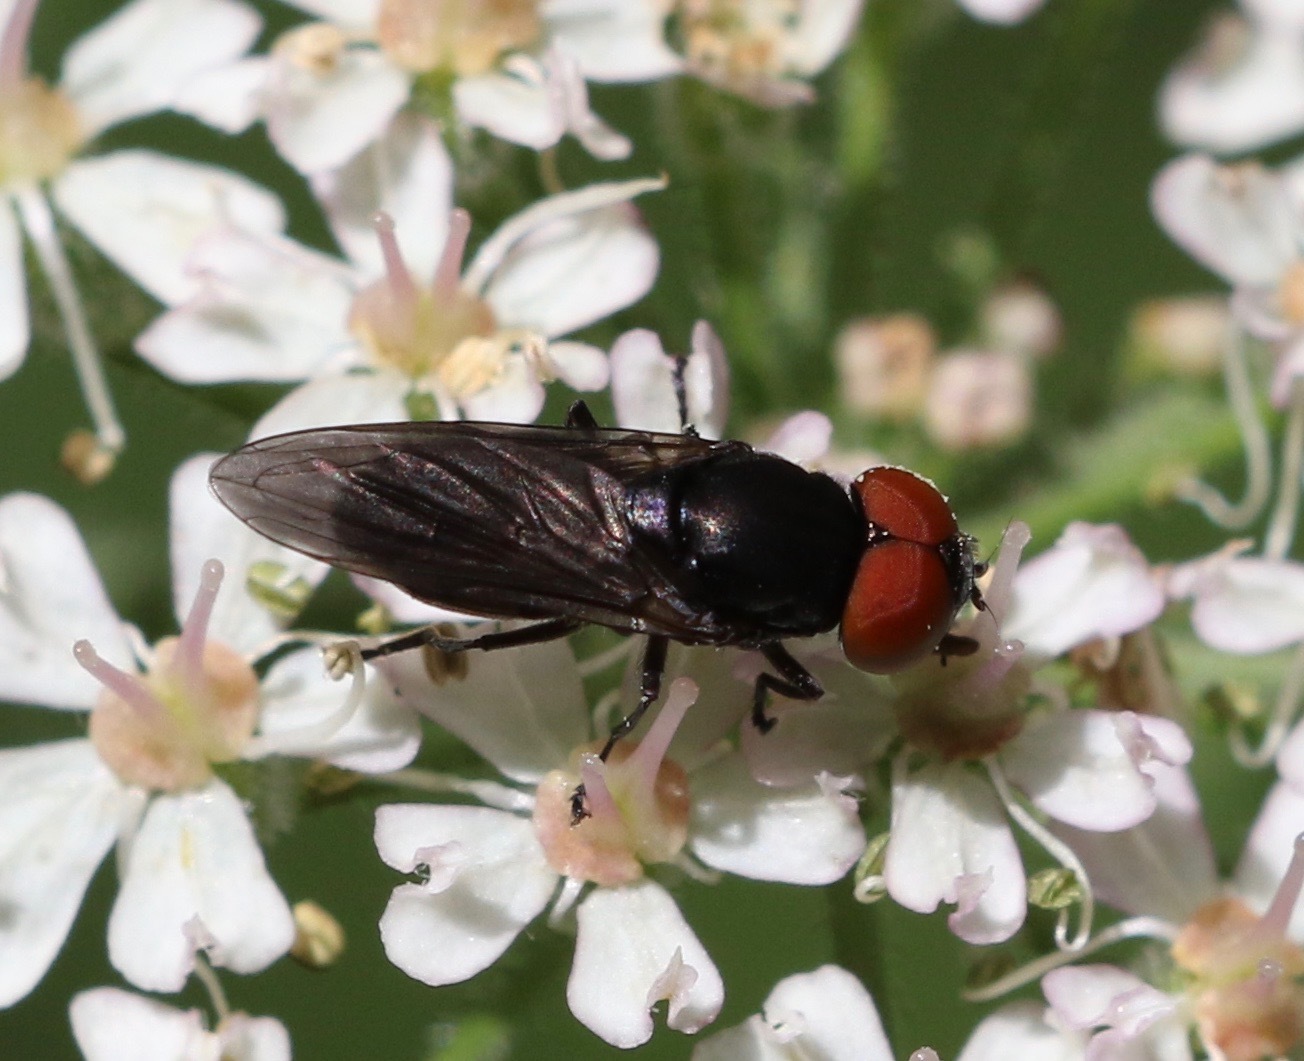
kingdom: Animalia
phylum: Arthropoda
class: Insecta
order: Diptera
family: Syrphidae
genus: Chrysogaster
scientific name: Chrysogaster solstitialis
